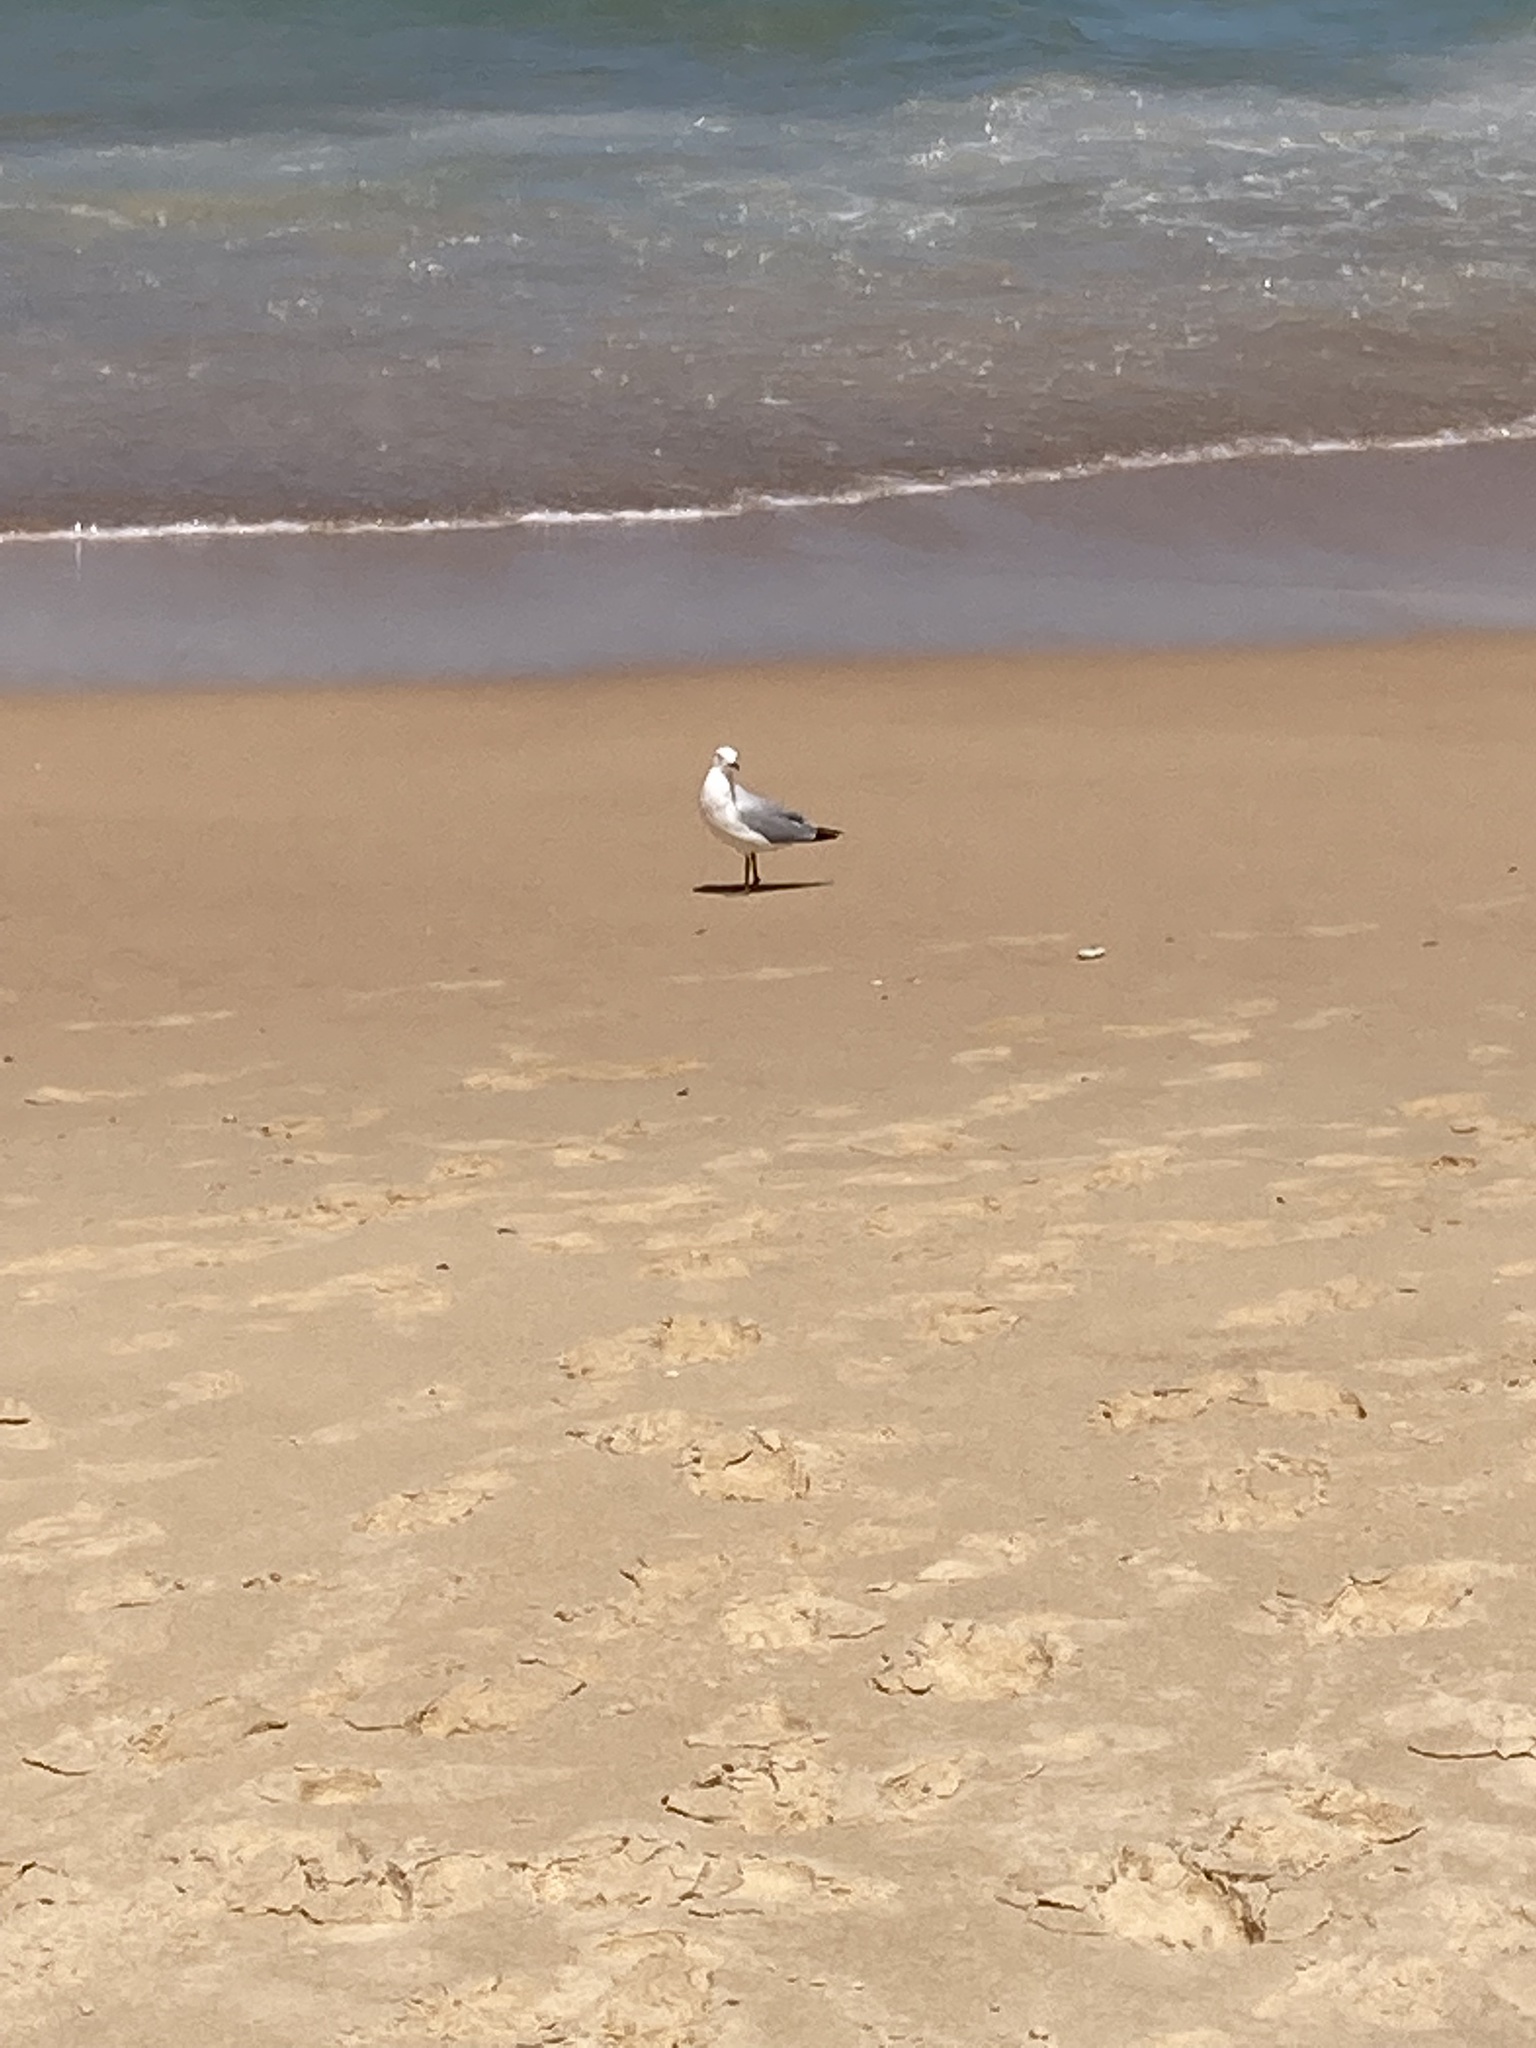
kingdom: Animalia
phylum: Chordata
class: Aves
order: Charadriiformes
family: Laridae
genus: Chroicocephalus
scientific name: Chroicocephalus novaehollandiae
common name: Silver gull
